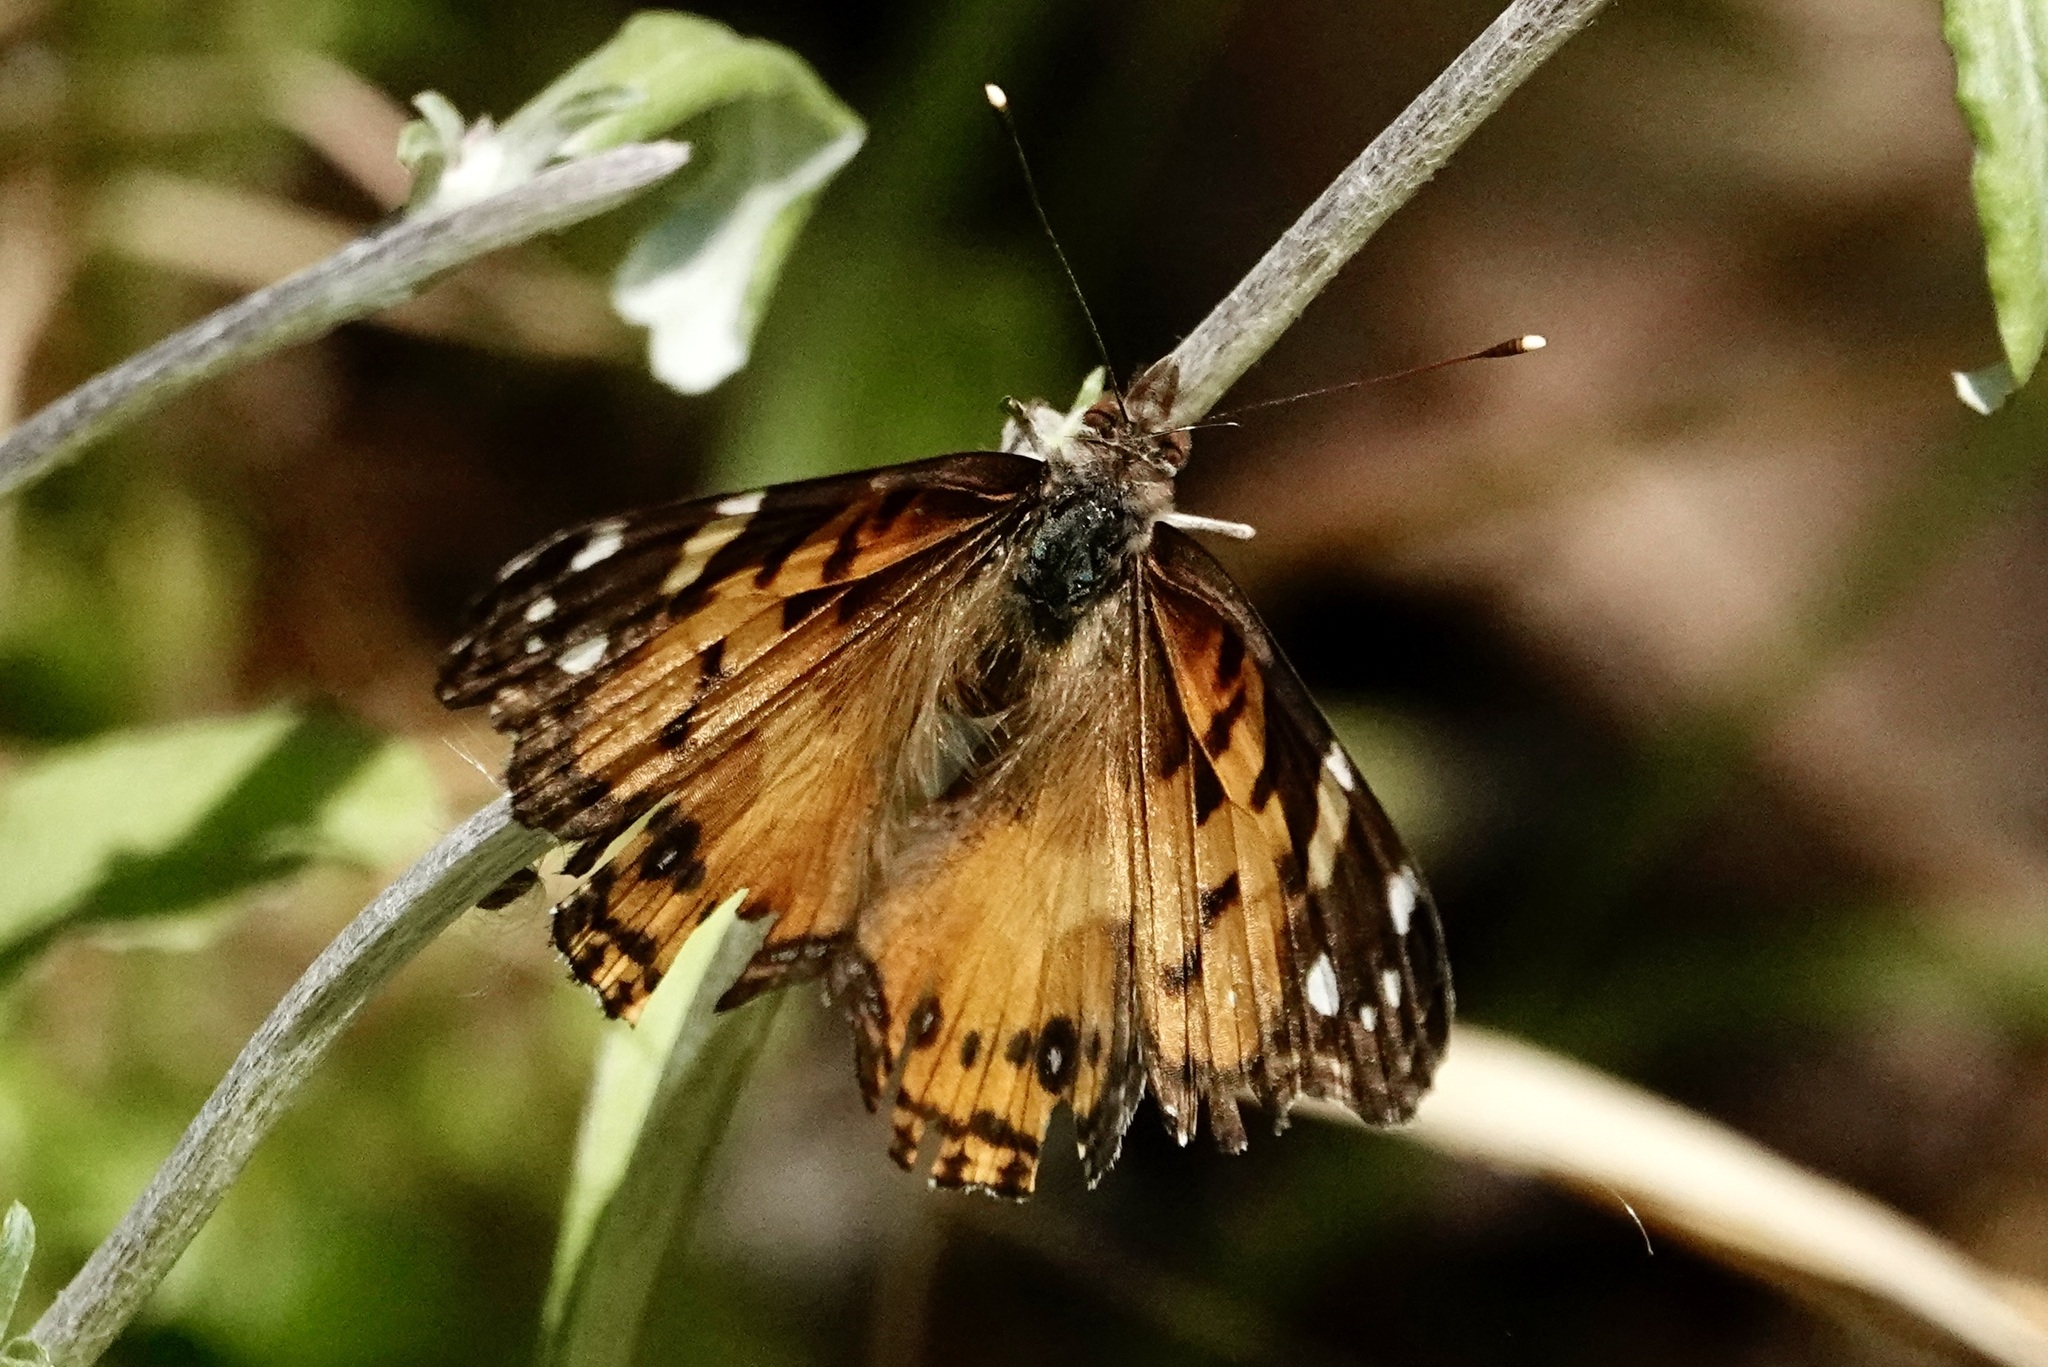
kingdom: Animalia
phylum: Arthropoda
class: Insecta
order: Lepidoptera
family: Nymphalidae
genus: Vanessa
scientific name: Vanessa virginiensis
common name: American lady
